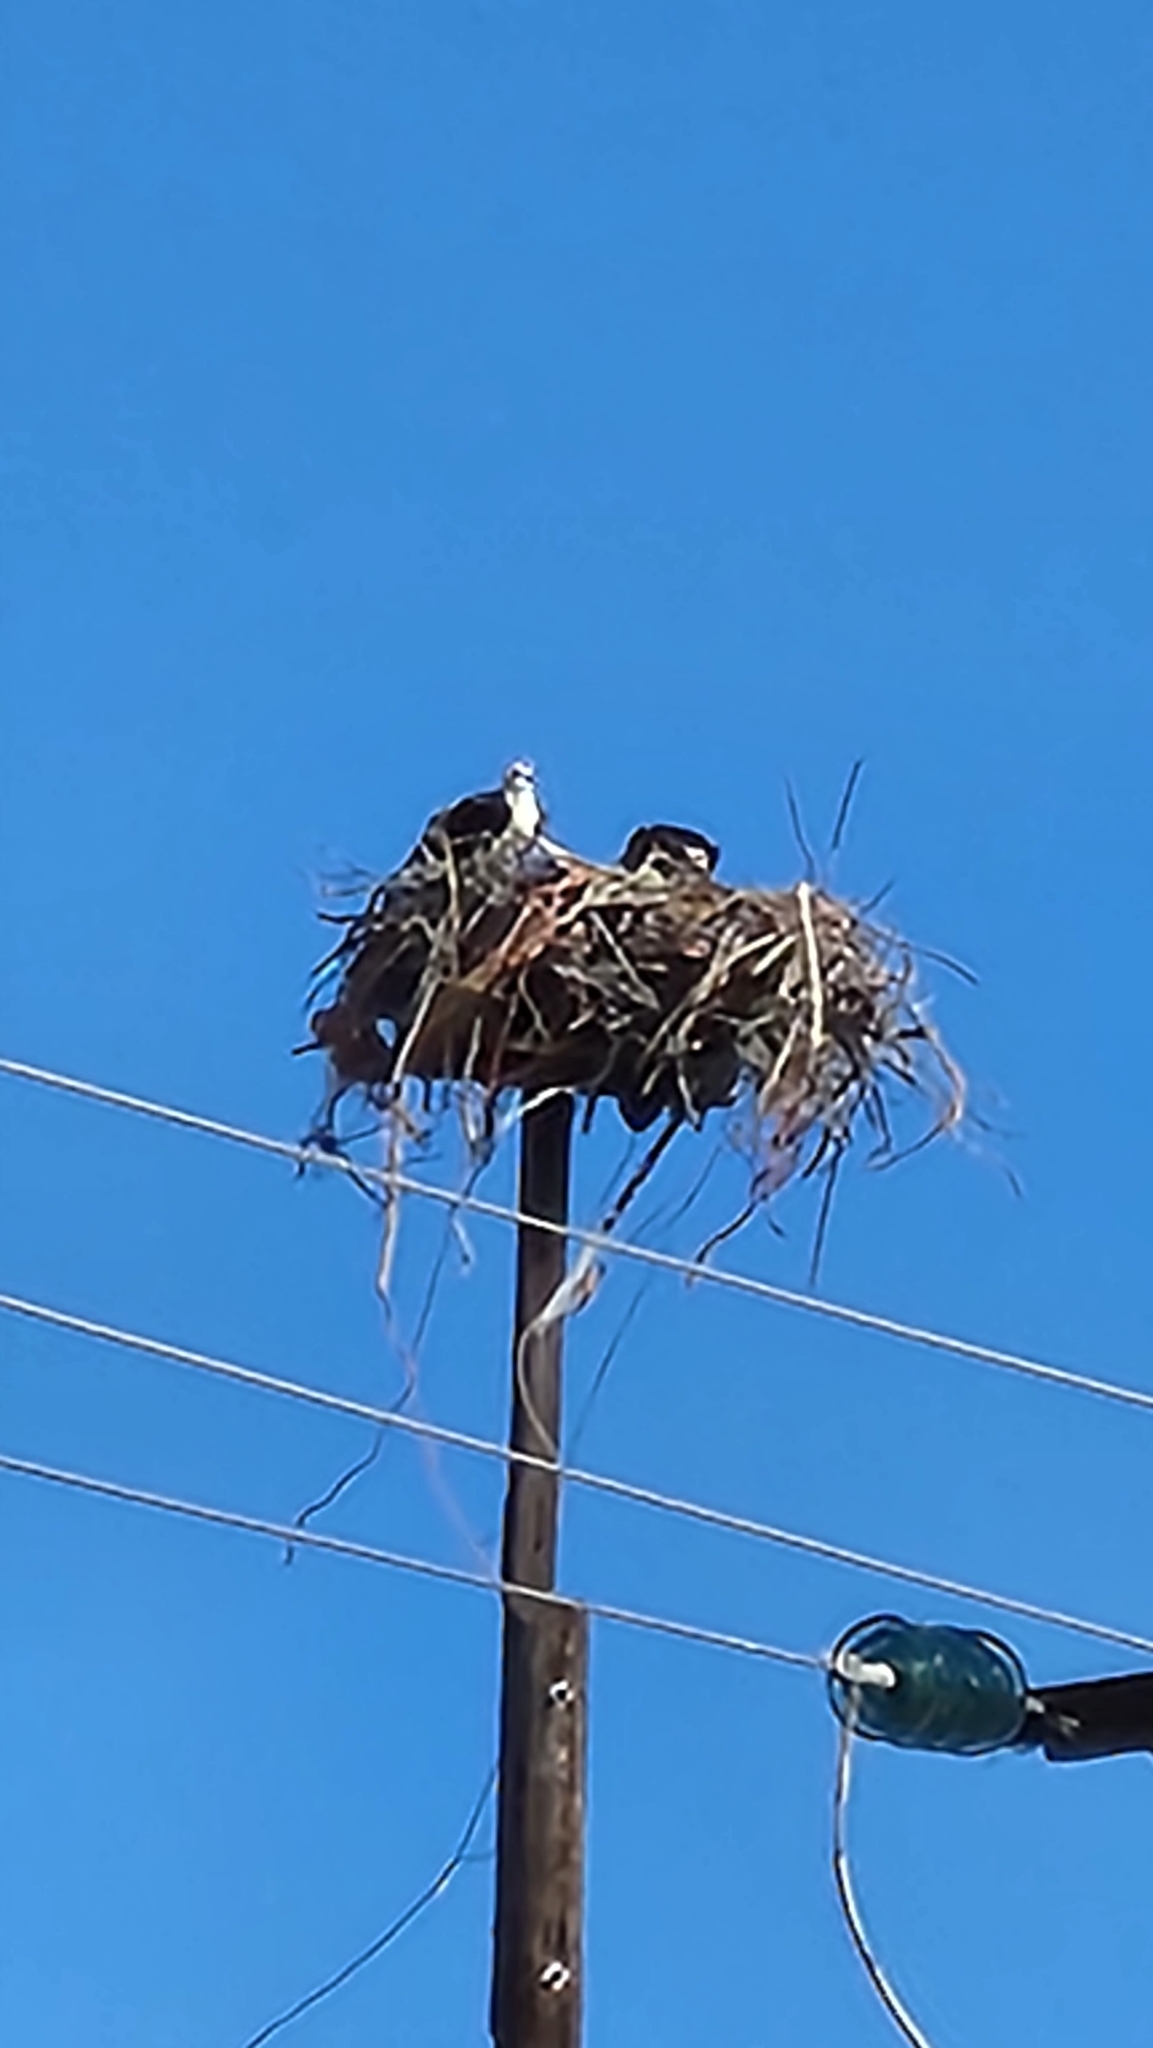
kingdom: Animalia
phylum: Chordata
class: Aves
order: Accipitriformes
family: Pandionidae
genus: Pandion
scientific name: Pandion haliaetus
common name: Osprey
